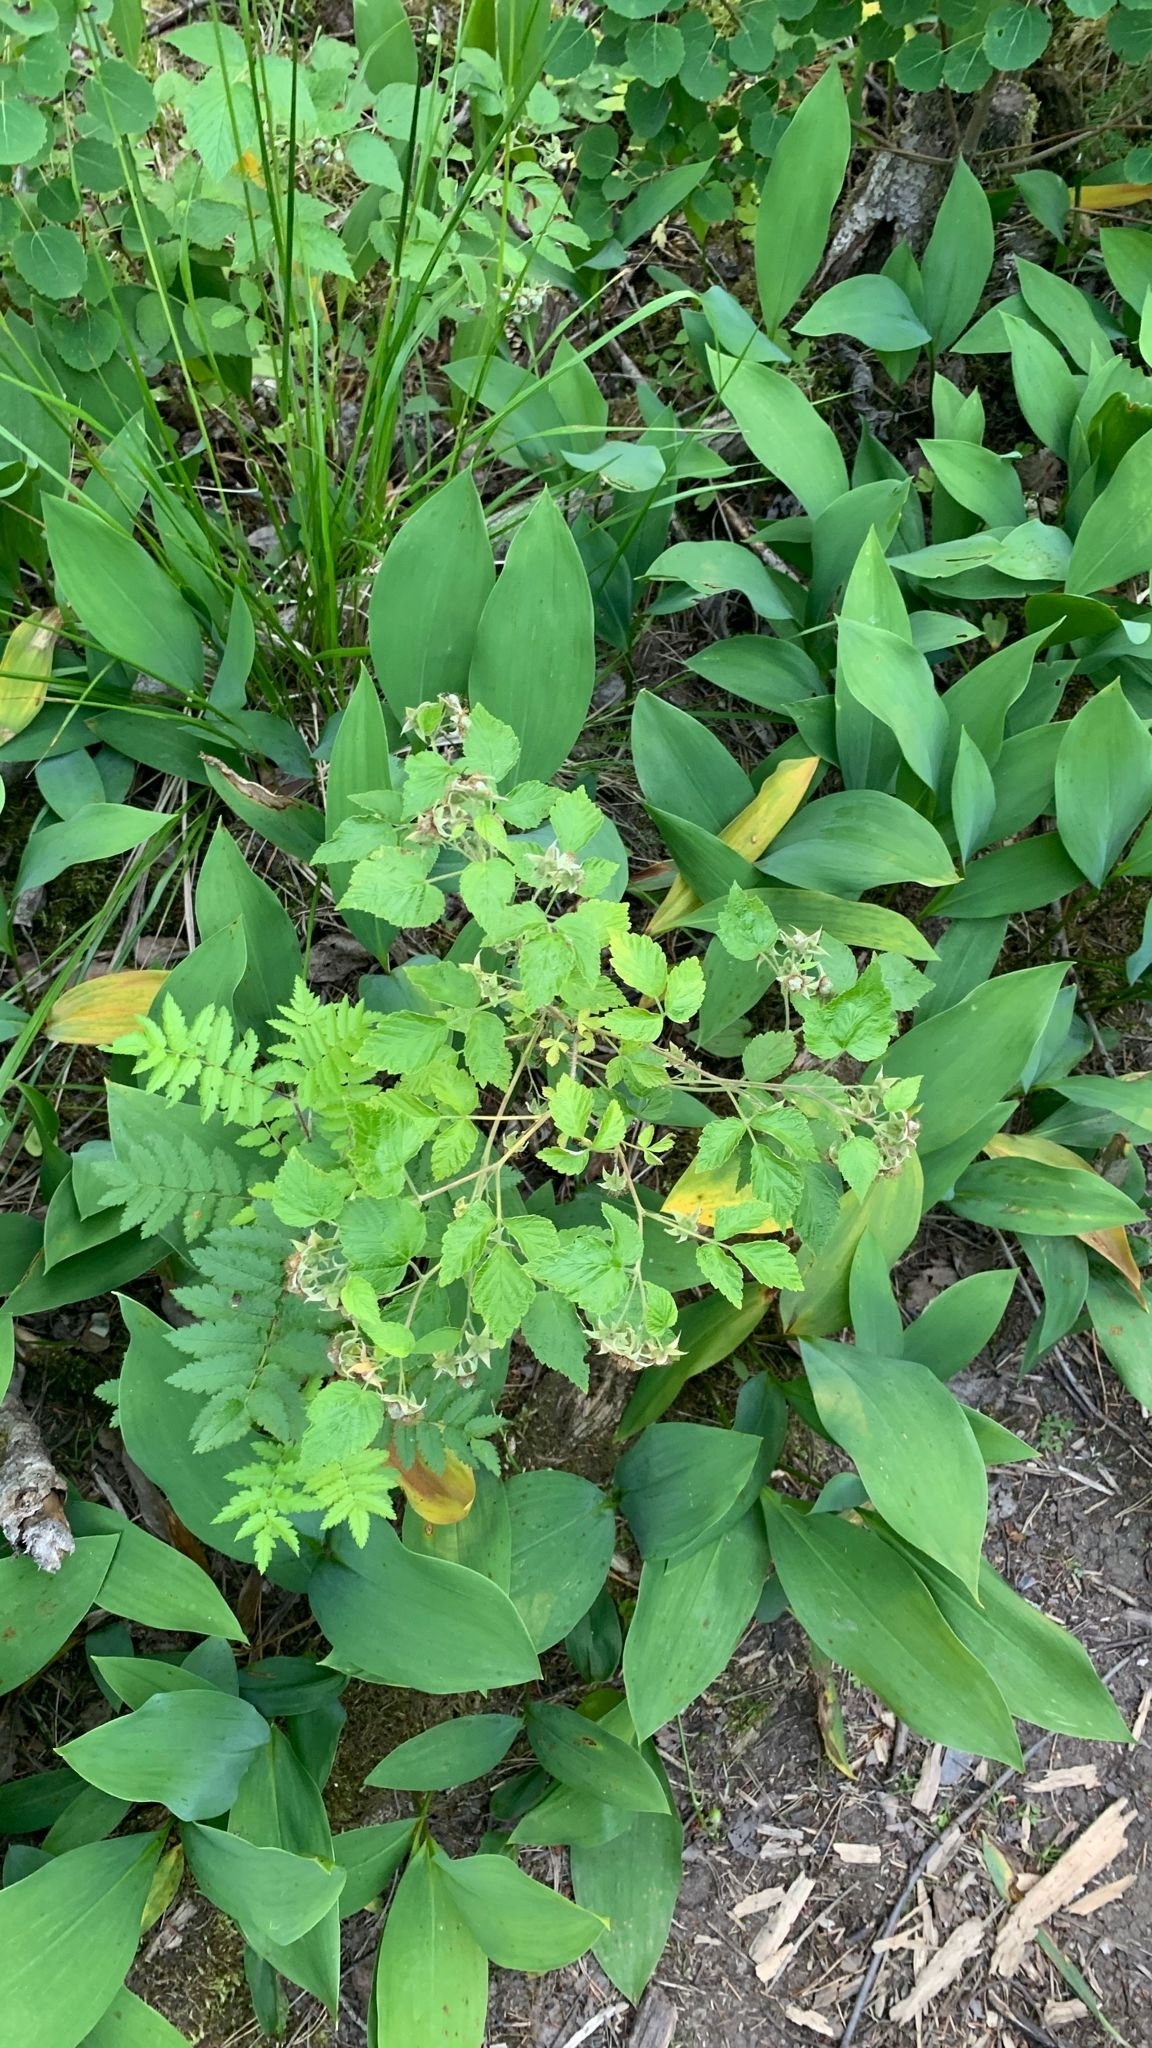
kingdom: Plantae
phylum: Tracheophyta
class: Magnoliopsida
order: Rosales
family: Rosaceae
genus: Rubus
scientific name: Rubus idaeus
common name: Raspberry
